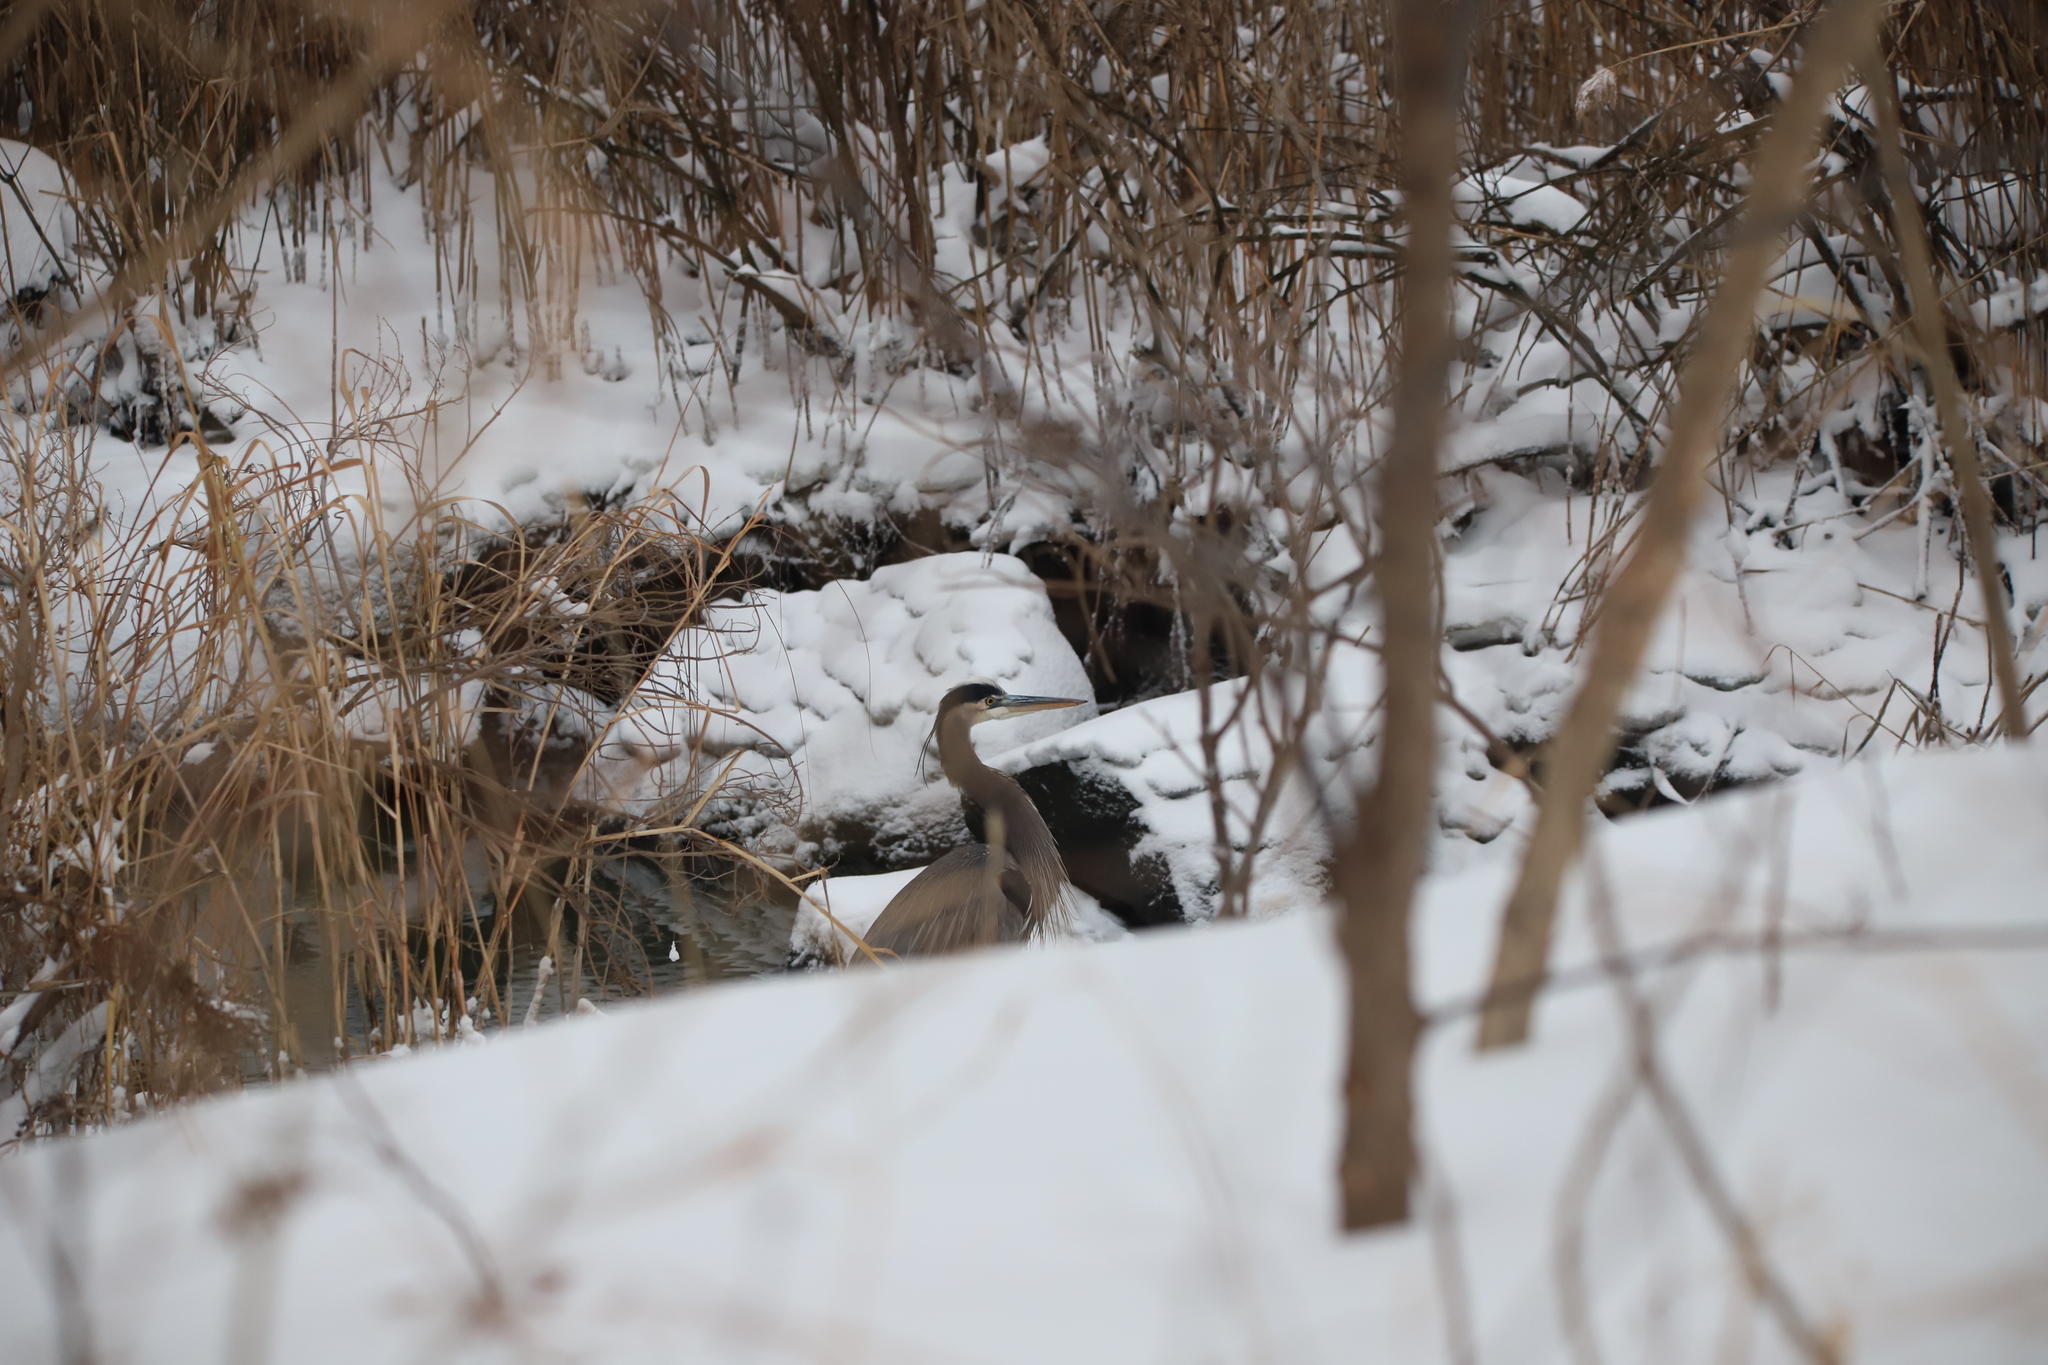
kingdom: Animalia
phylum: Chordata
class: Aves
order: Pelecaniformes
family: Ardeidae
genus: Ardea
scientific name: Ardea herodias
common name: Great blue heron
